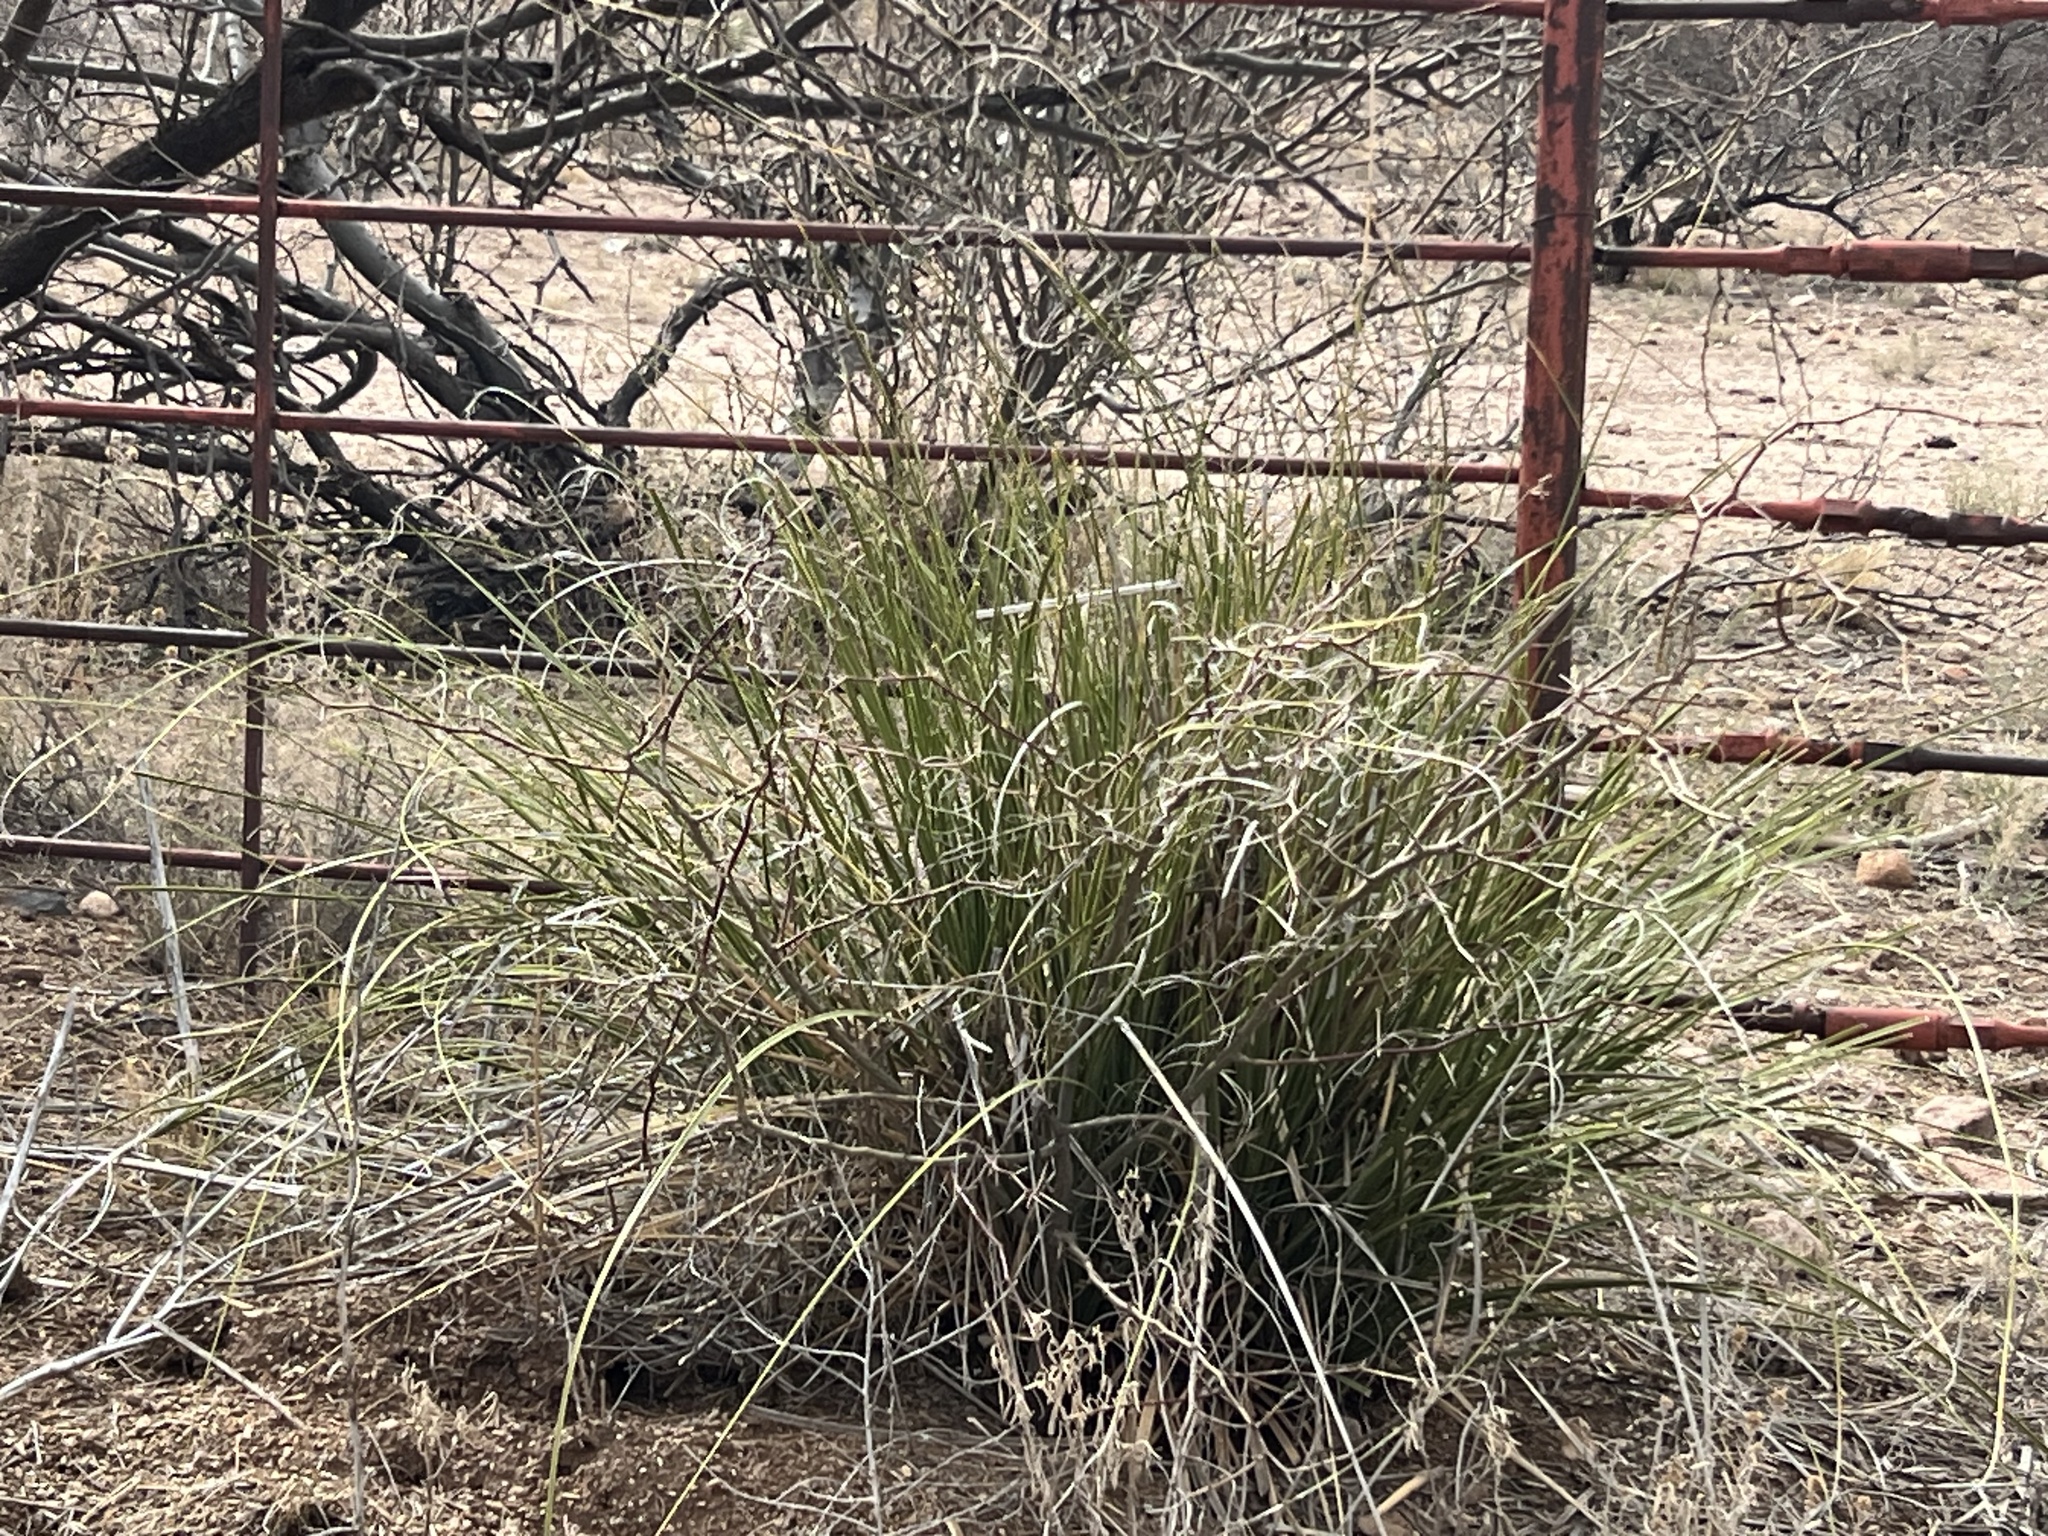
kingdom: Plantae
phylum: Tracheophyta
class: Liliopsida
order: Asparagales
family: Asparagaceae
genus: Nolina
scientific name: Nolina microcarpa
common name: Bear-grass
